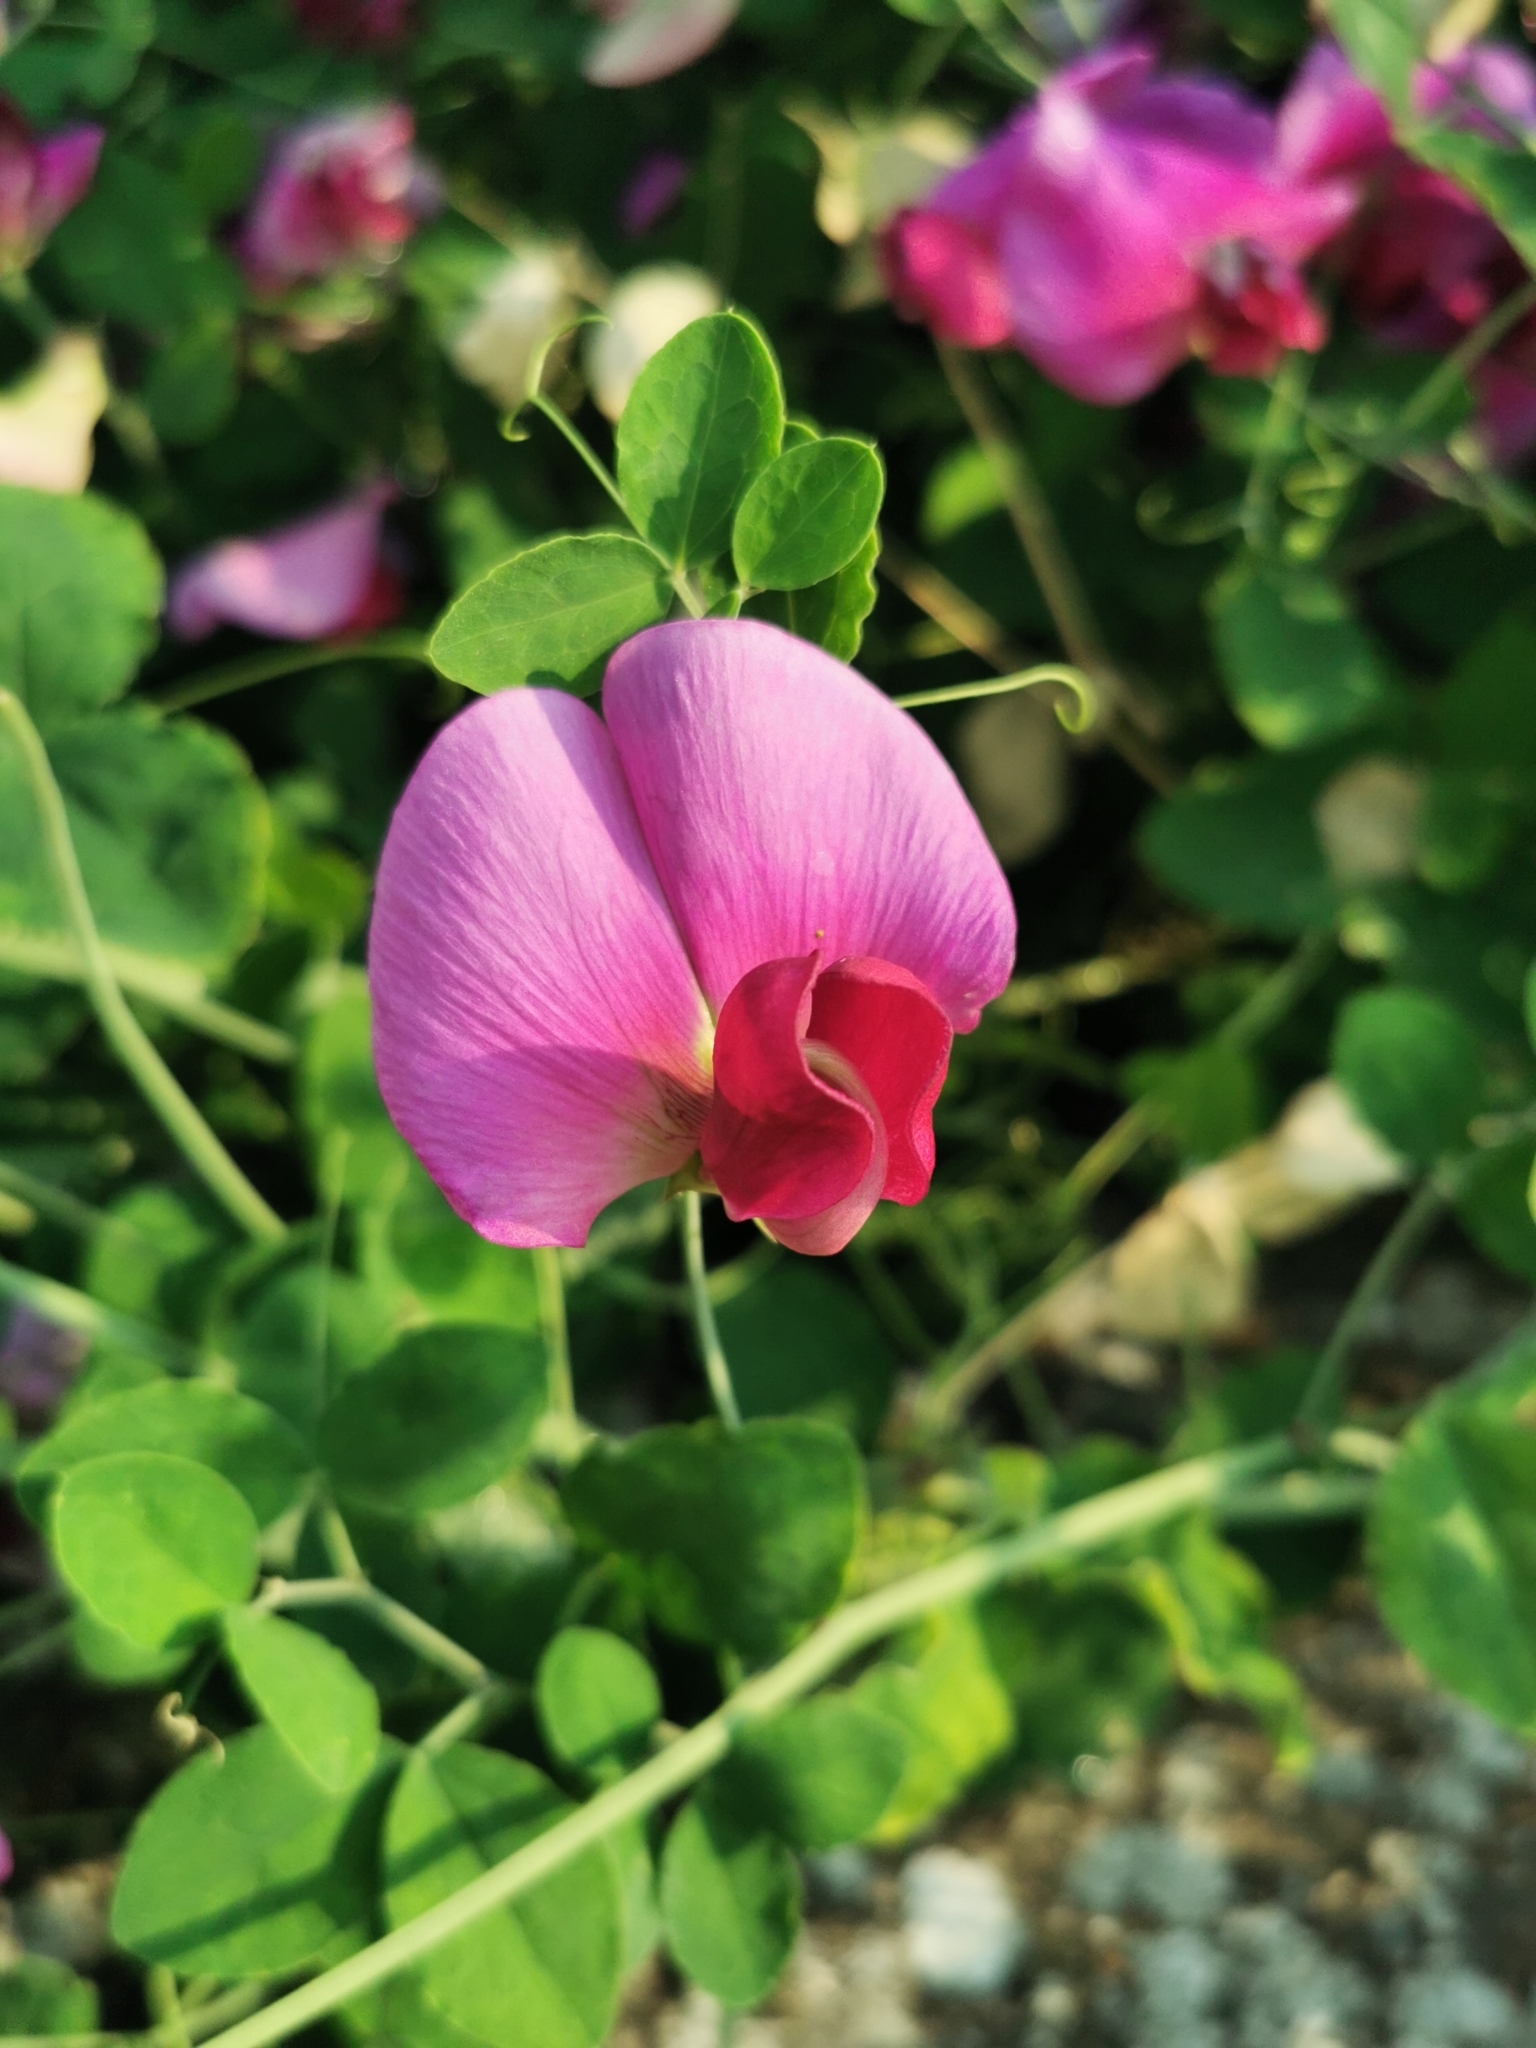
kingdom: Plantae
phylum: Tracheophyta
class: Magnoliopsida
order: Fabales
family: Fabaceae
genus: Lathyrus
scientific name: Lathyrus grandiflorus
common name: Two-flowered everlasting-pea
